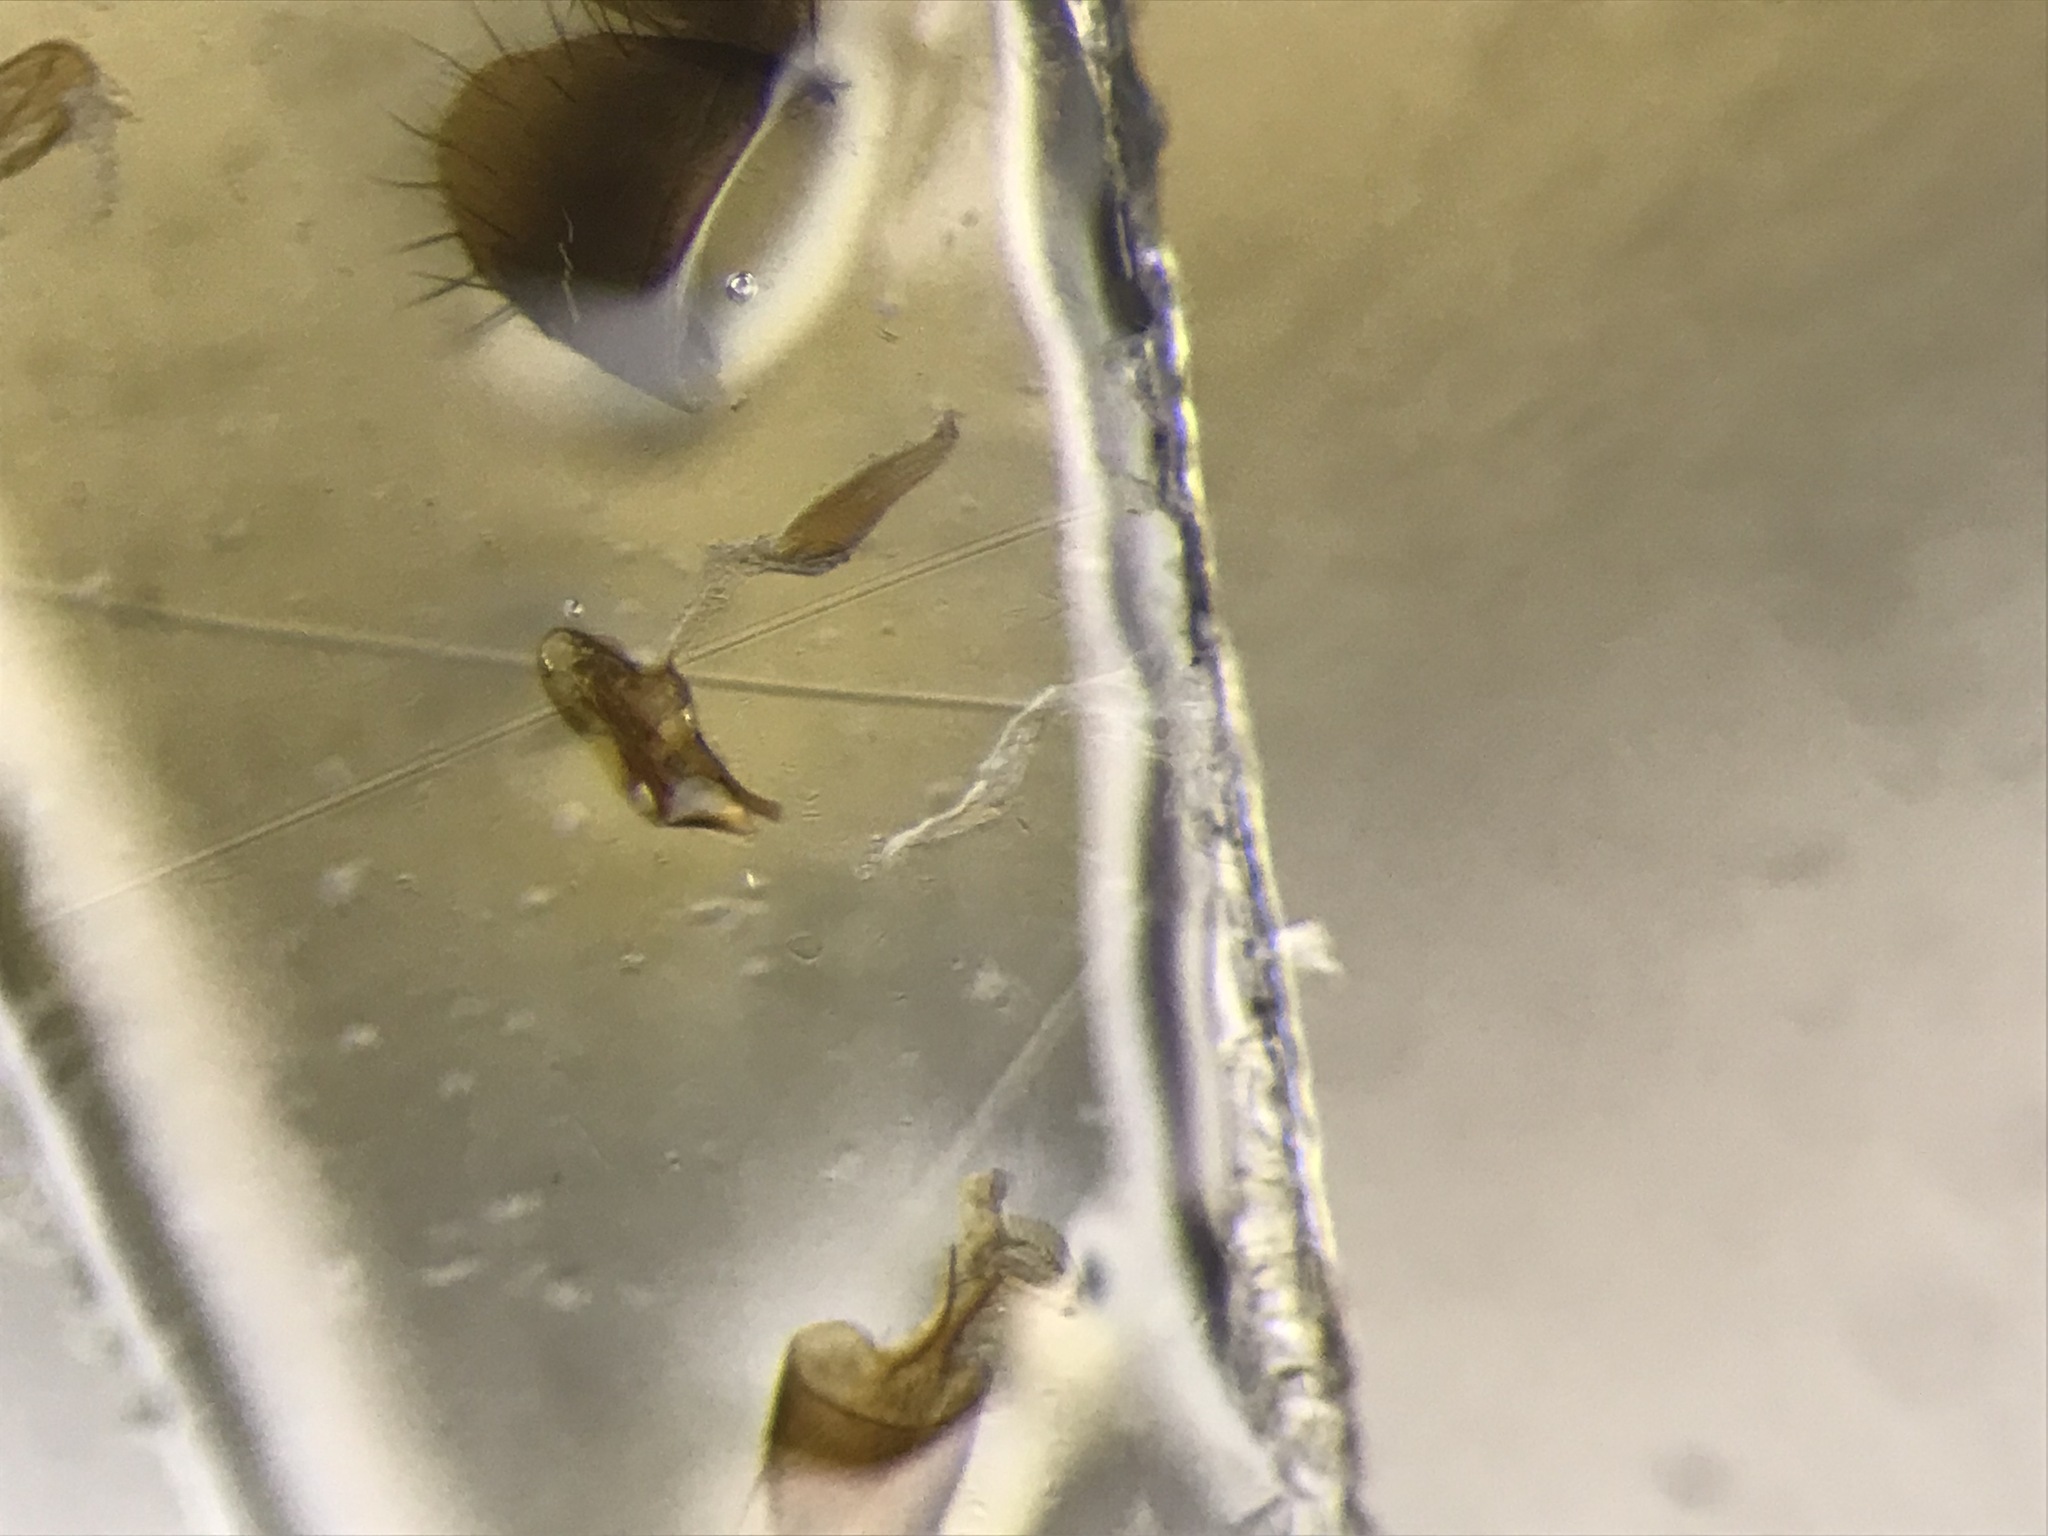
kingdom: Animalia
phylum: Arthropoda
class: Insecta
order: Coleoptera
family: Staphylinidae
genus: Atheta
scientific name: Atheta modesta
